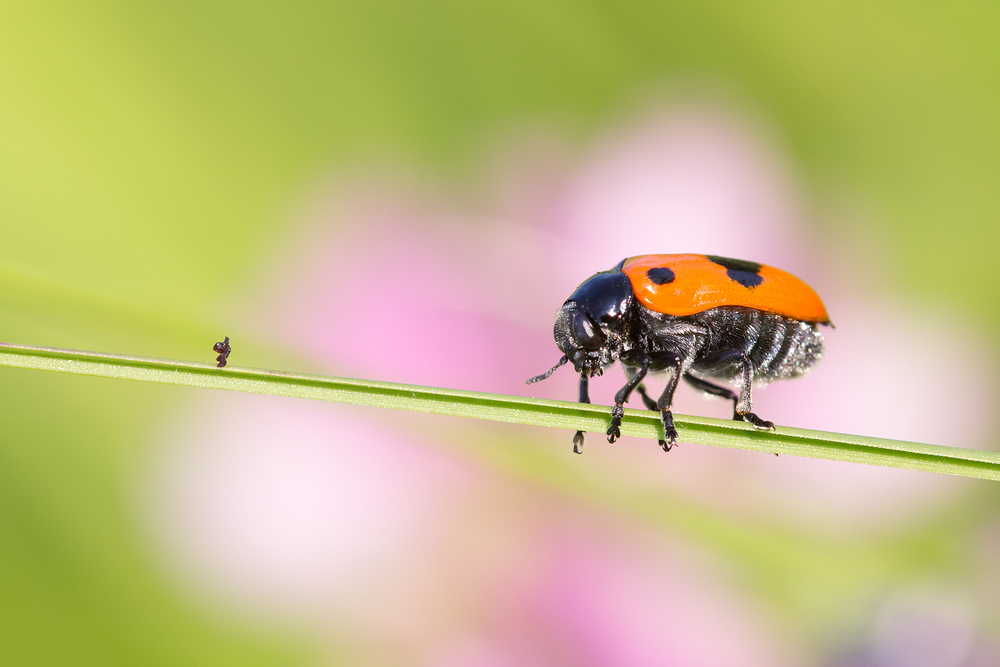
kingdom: Animalia
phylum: Arthropoda
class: Insecta
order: Coleoptera
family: Chrysomelidae
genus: Clytra
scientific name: Clytra laeviuscula
